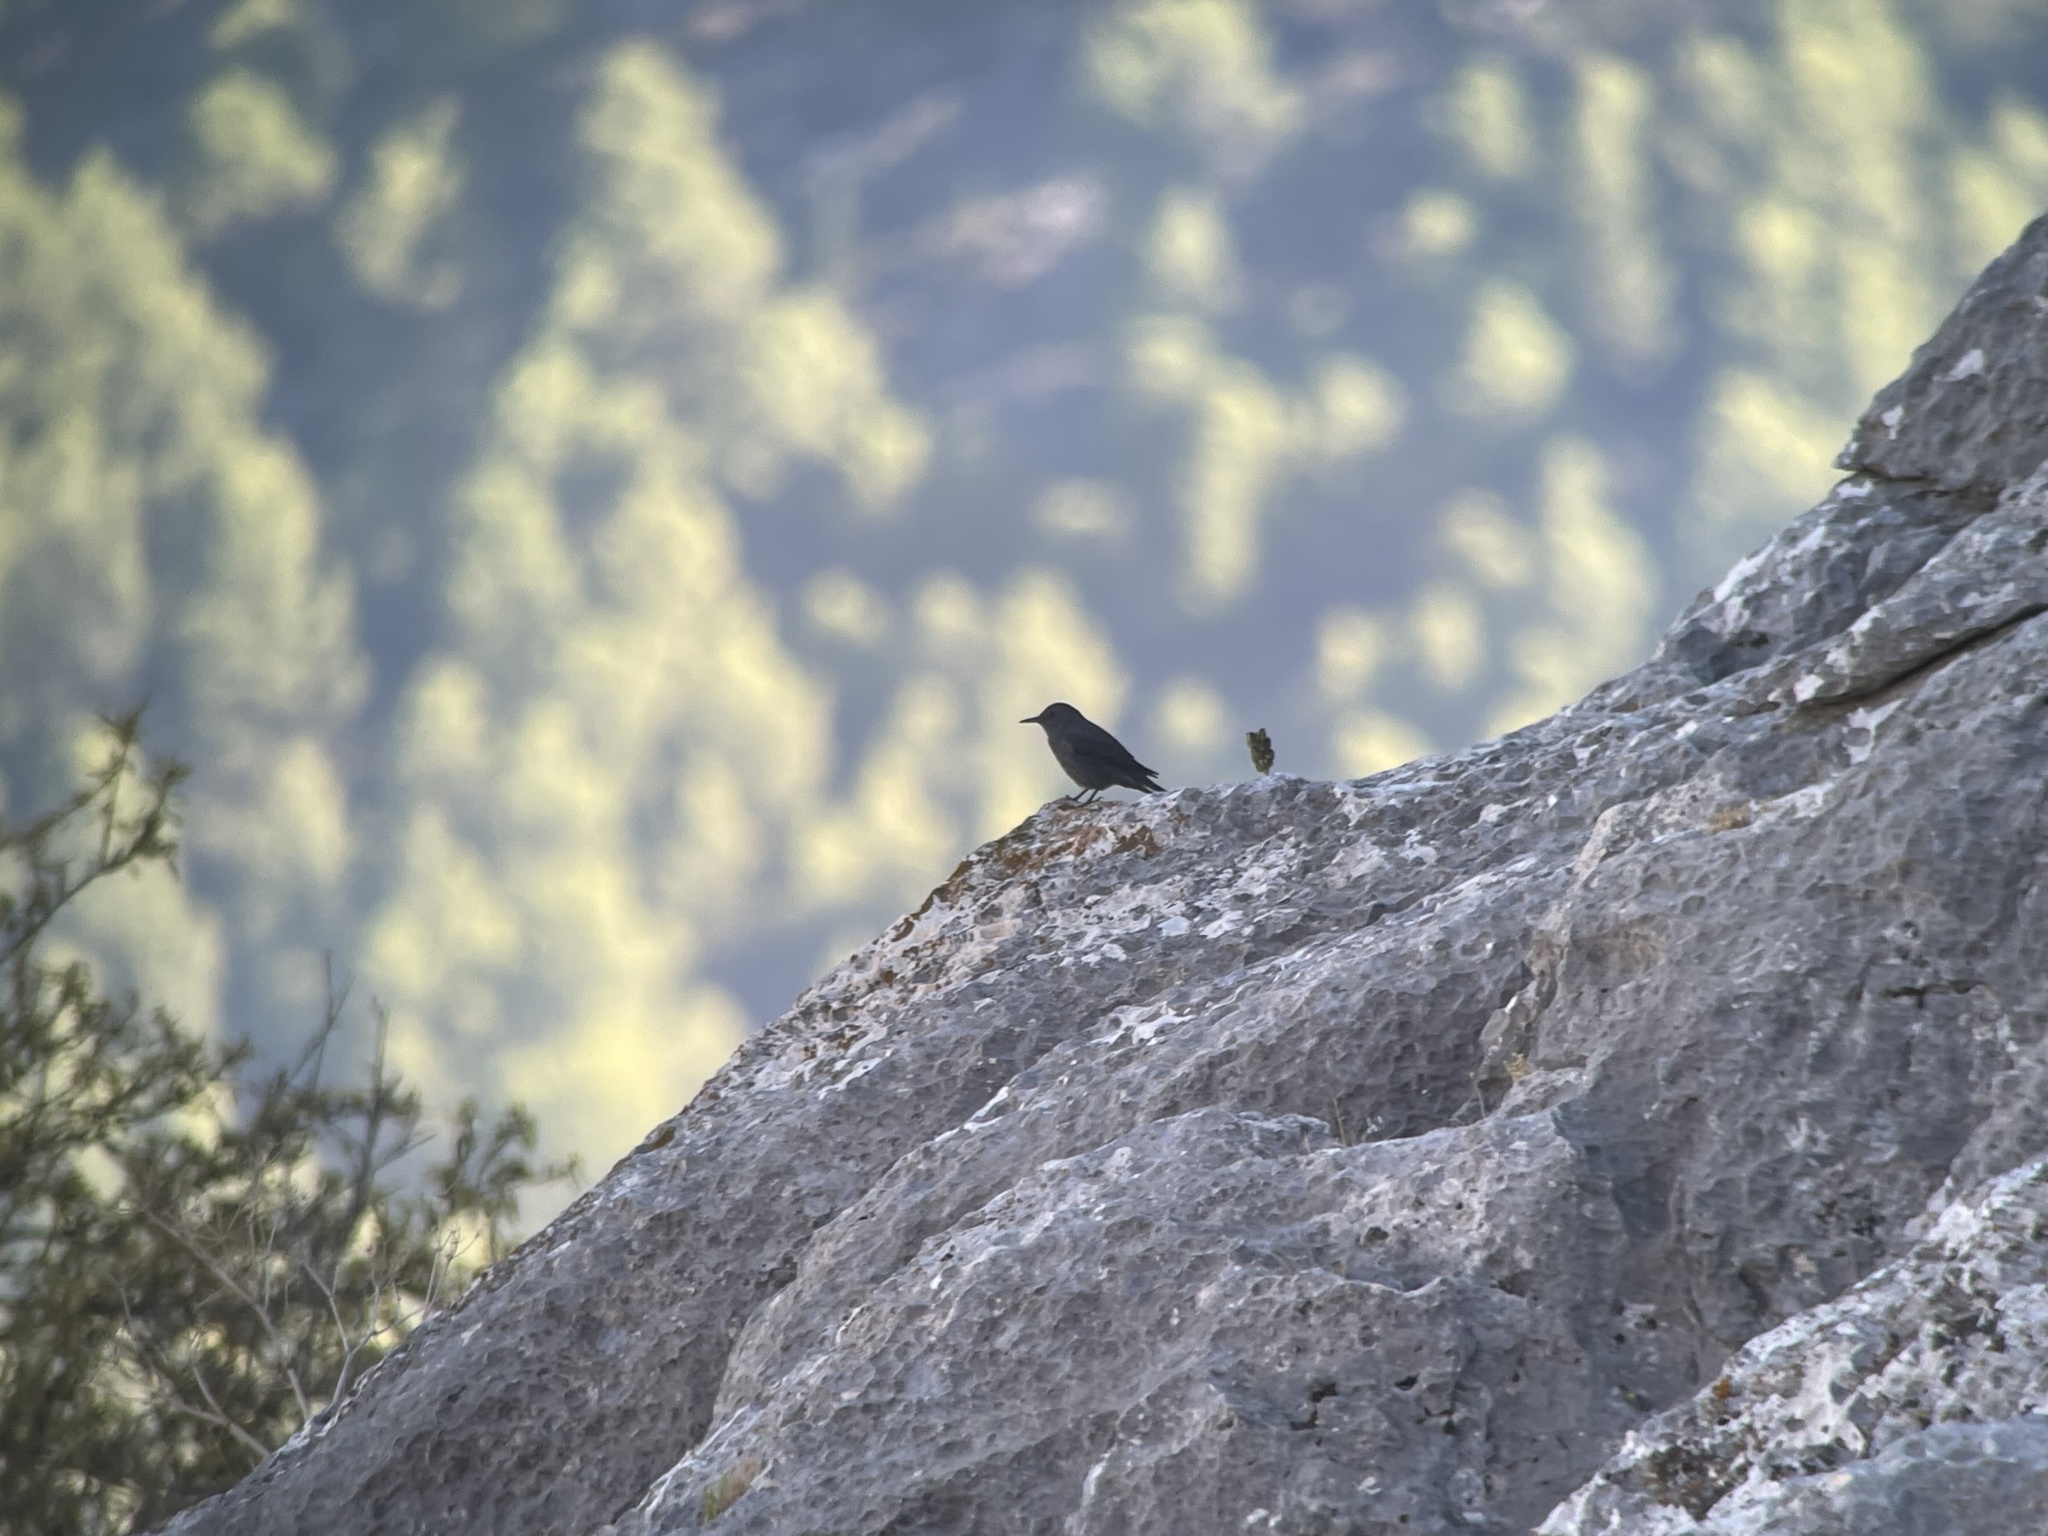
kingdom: Animalia
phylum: Chordata
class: Aves
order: Passeriformes
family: Muscicapidae
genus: Monticola
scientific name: Monticola solitarius
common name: Blue rock thrush
